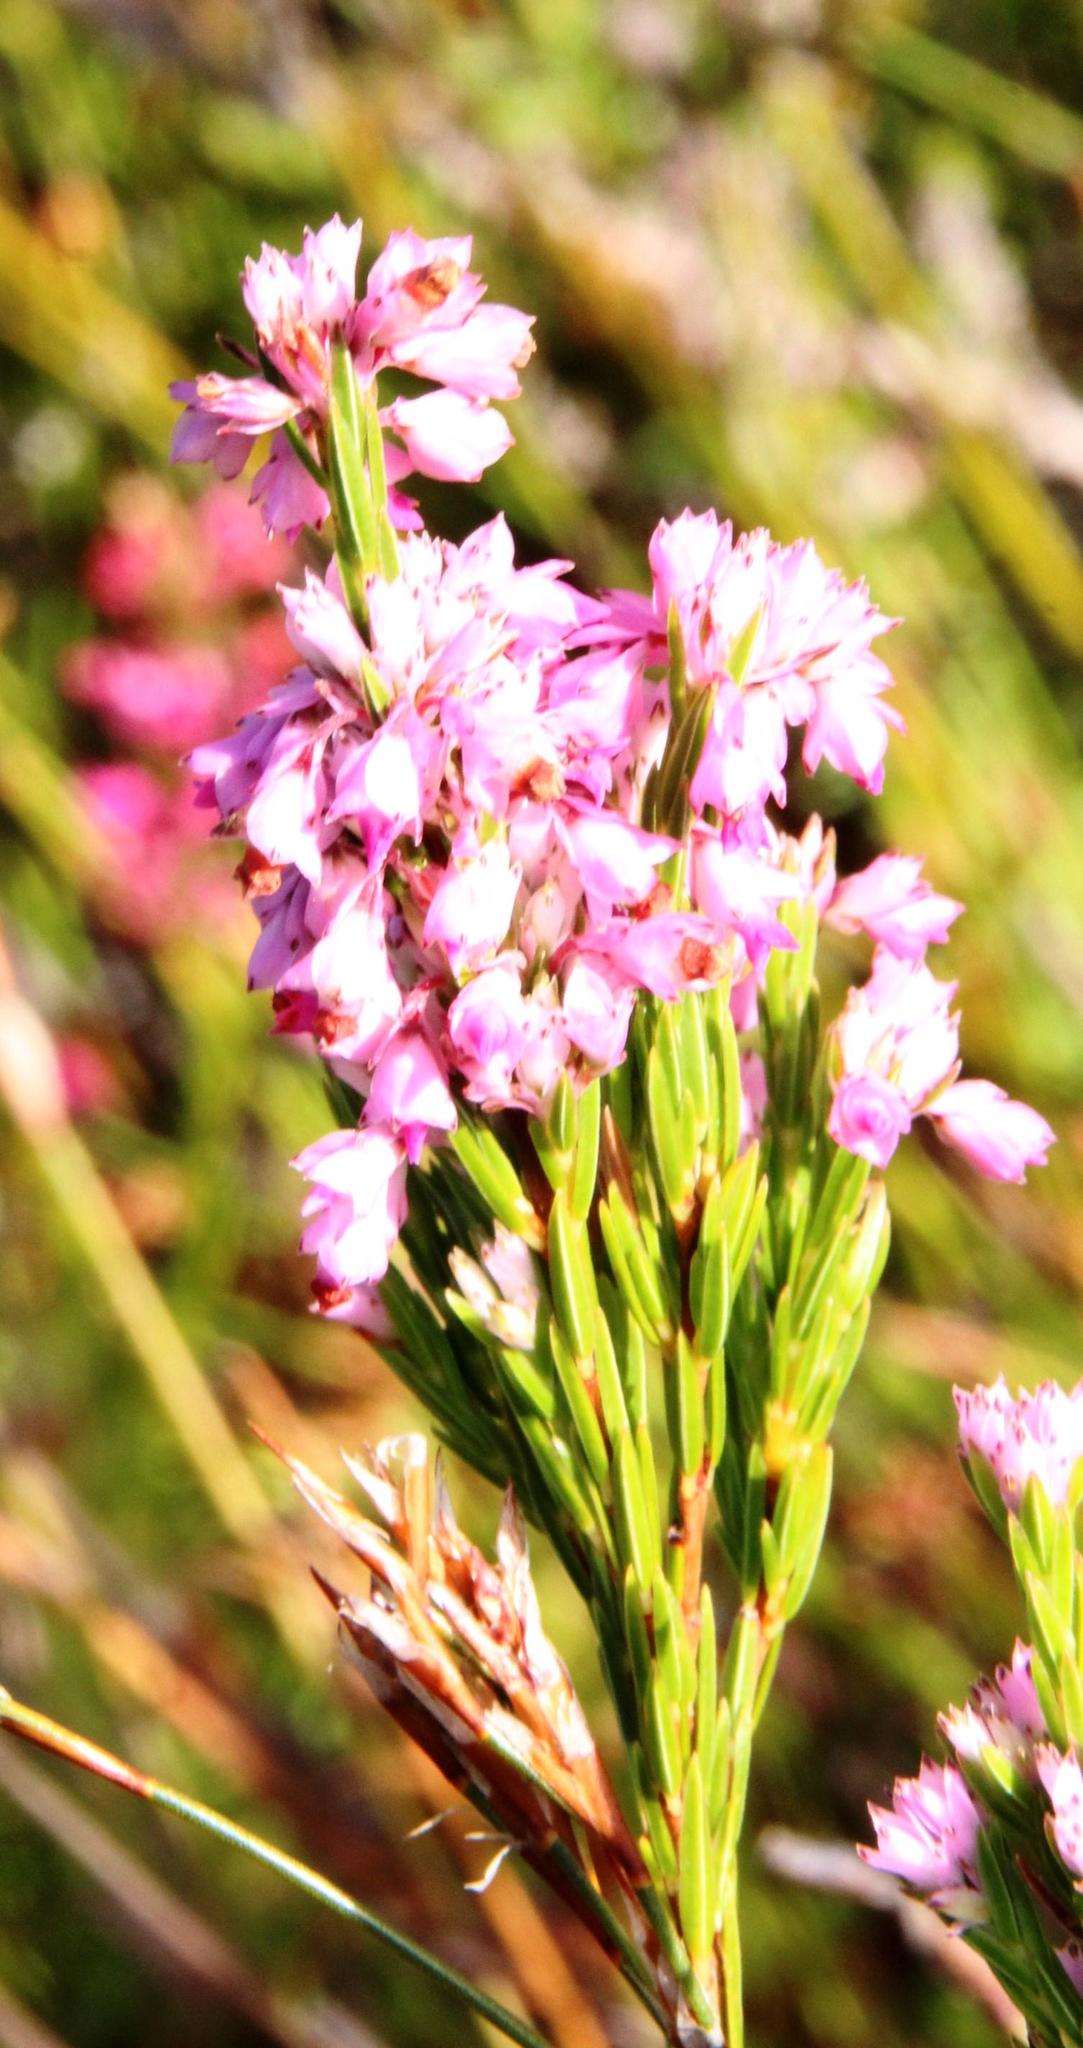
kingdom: Plantae
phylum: Tracheophyta
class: Magnoliopsida
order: Ericales
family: Ericaceae
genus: Erica
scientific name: Erica corifolia
